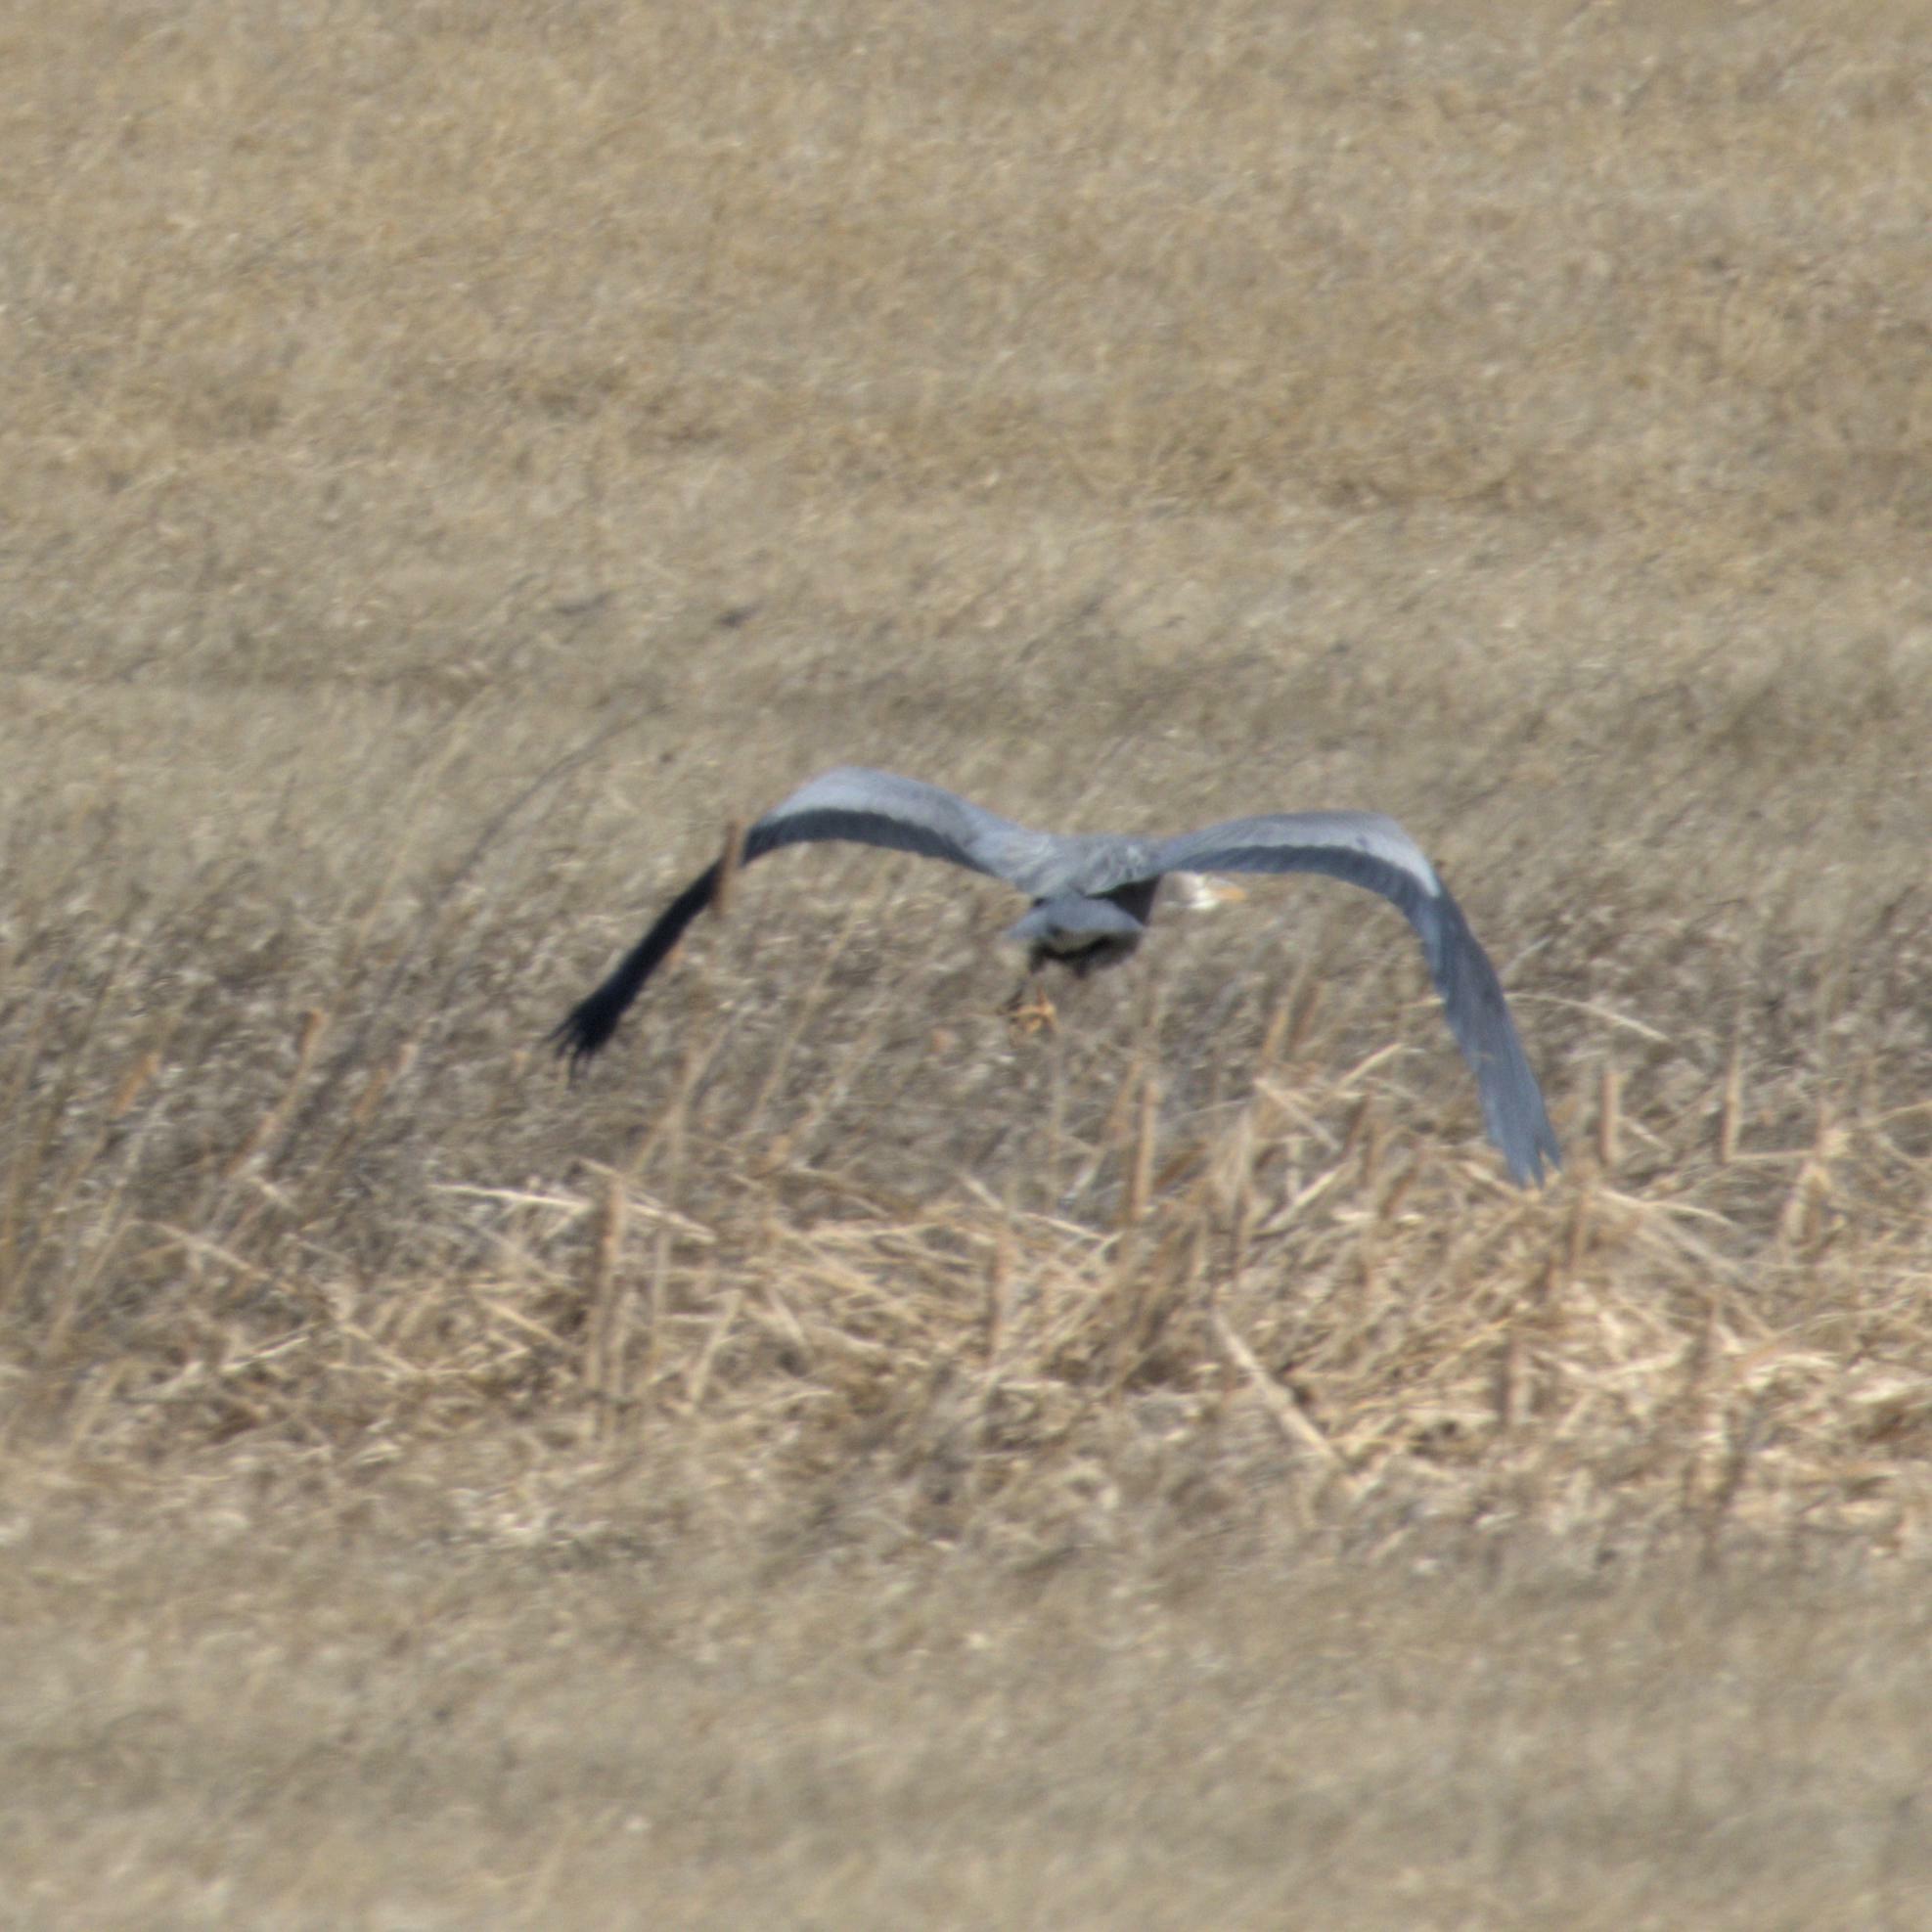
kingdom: Animalia
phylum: Chordata
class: Aves
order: Pelecaniformes
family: Ardeidae
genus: Ardea
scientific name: Ardea herodias
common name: Great blue heron
